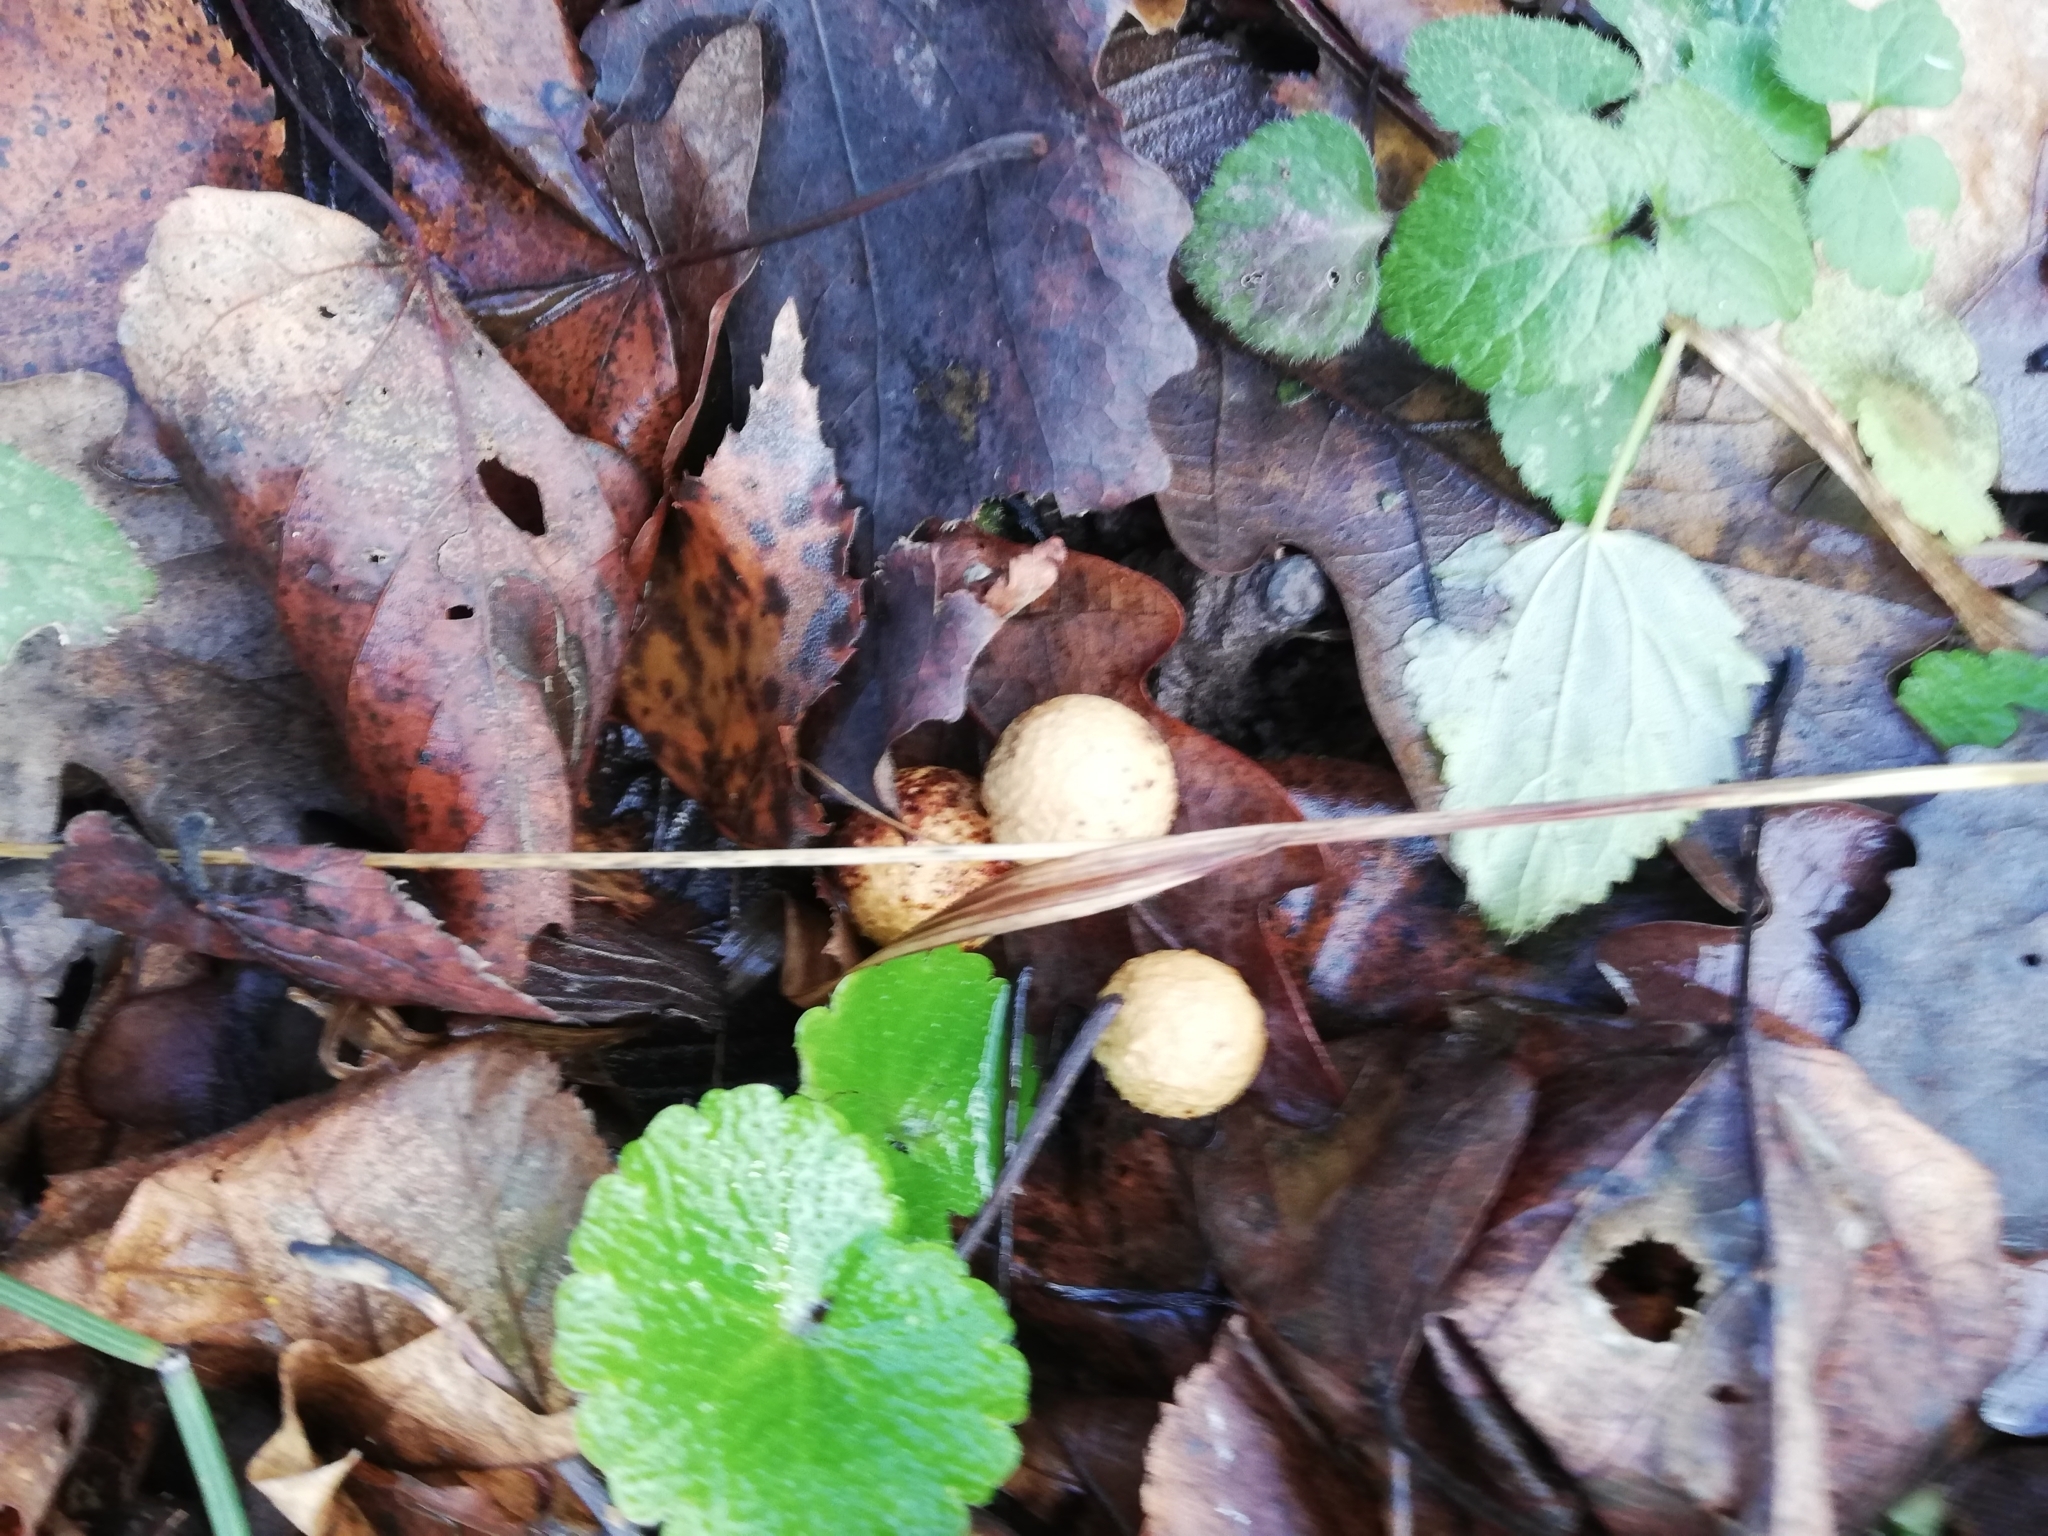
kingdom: Animalia
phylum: Arthropoda
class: Insecta
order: Hymenoptera
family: Cynipidae
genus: Cynips
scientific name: Cynips quercusfolii
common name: Cherry gall
